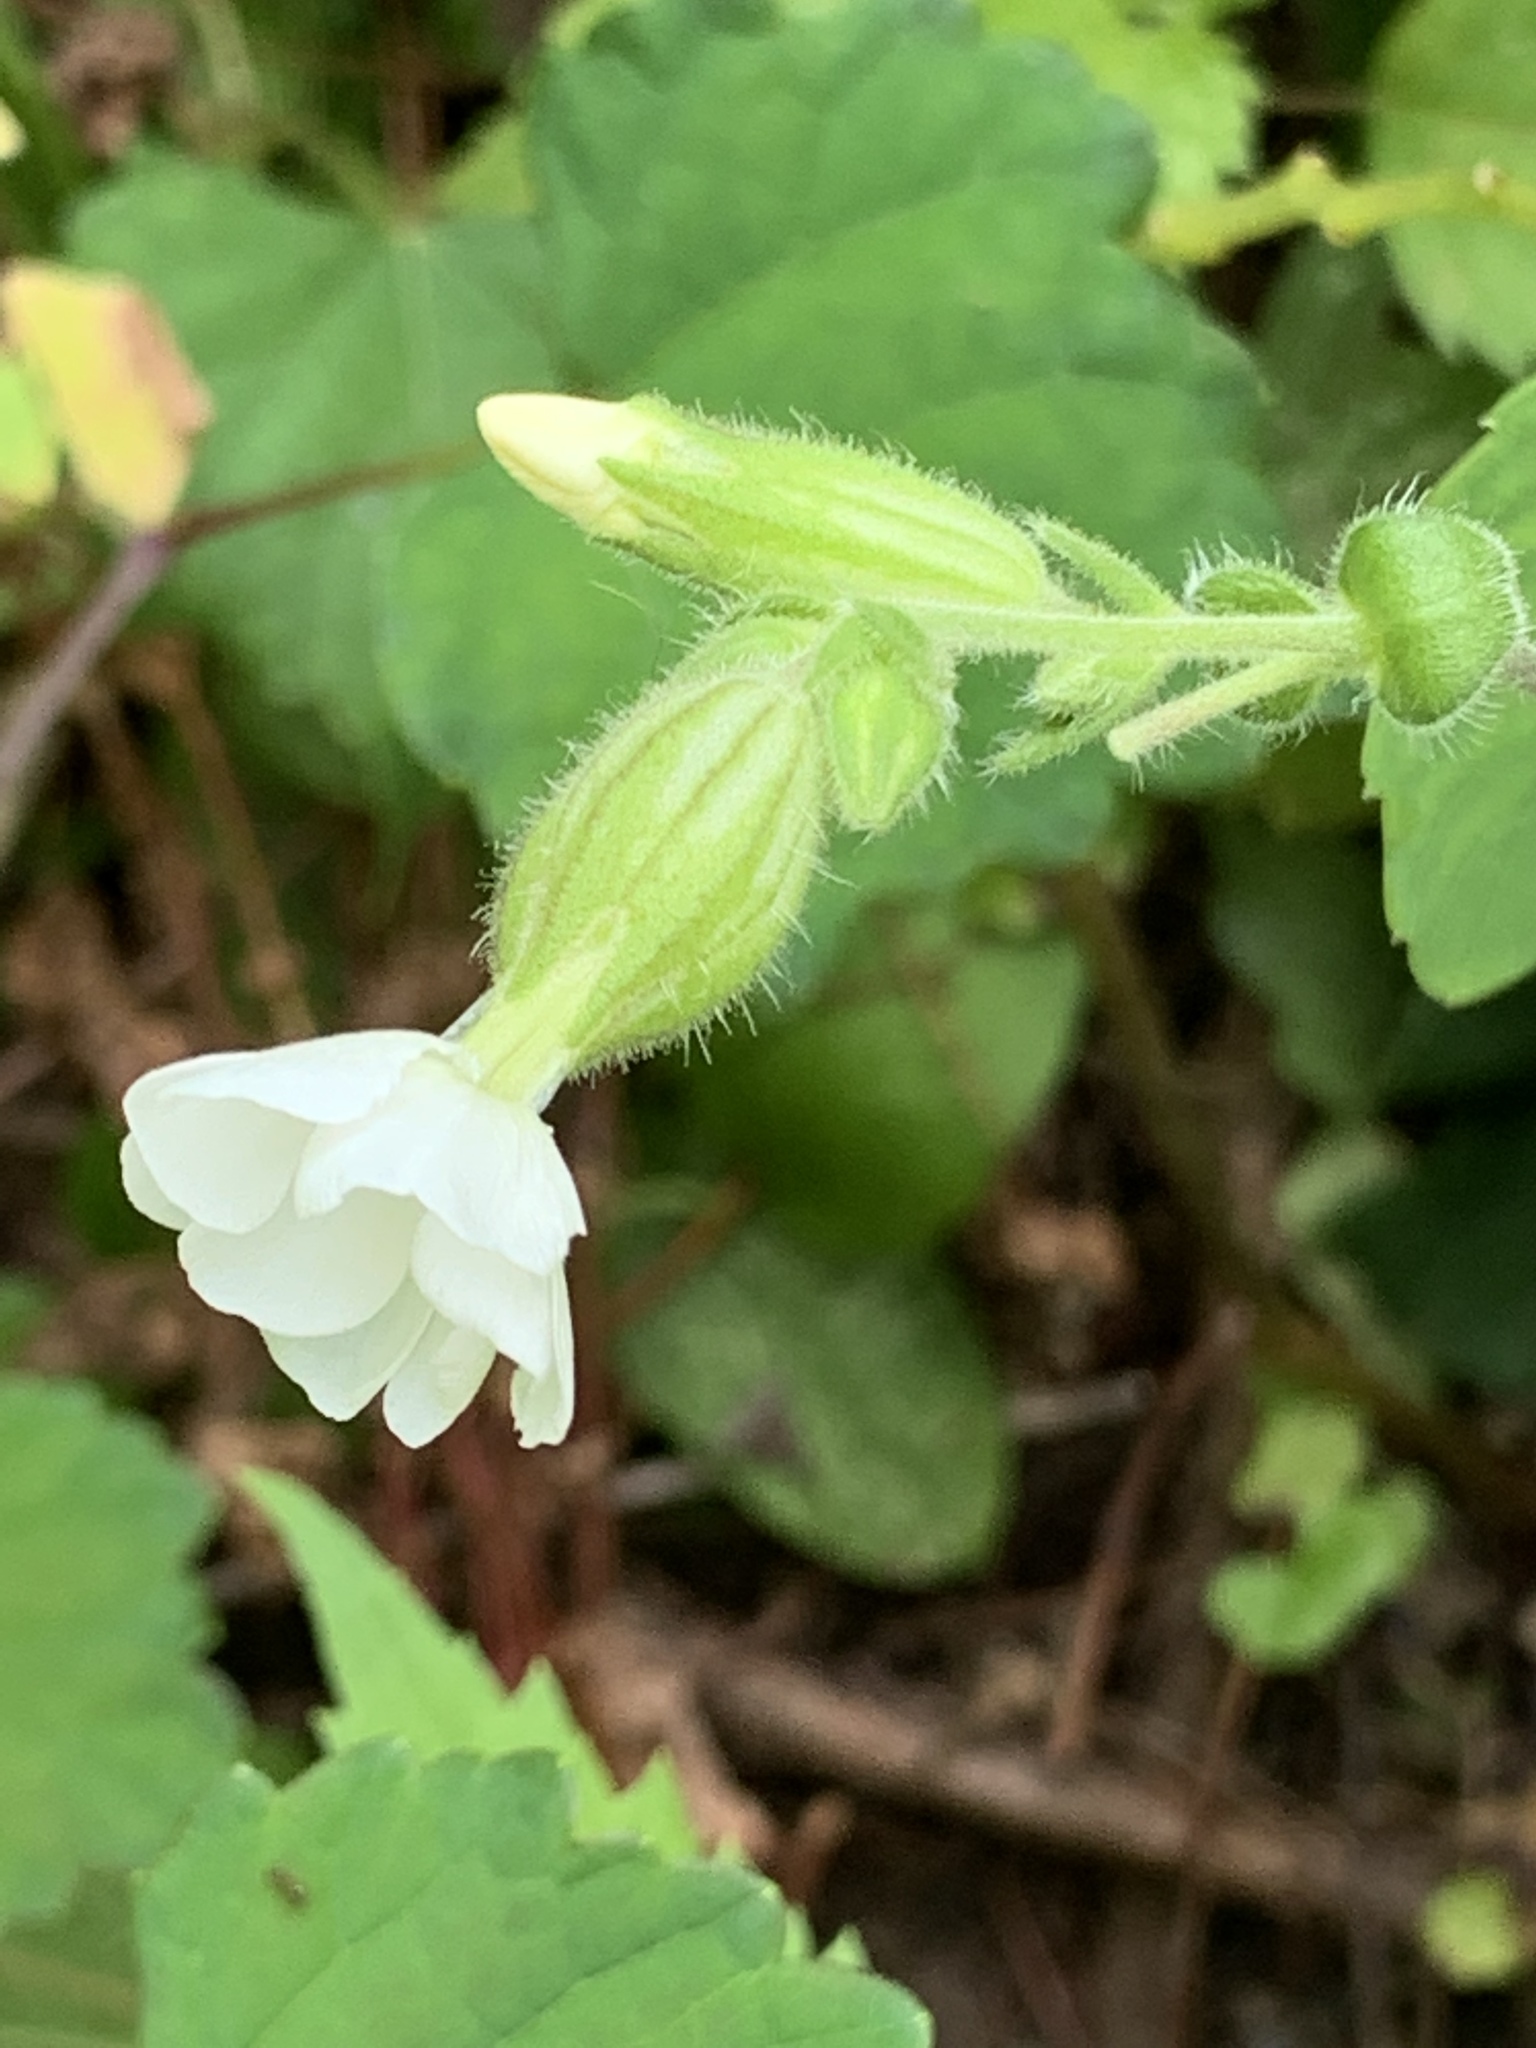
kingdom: Plantae
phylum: Tracheophyta
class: Magnoliopsida
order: Caryophyllales
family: Caryophyllaceae
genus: Silene
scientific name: Silene latifolia
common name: White campion
